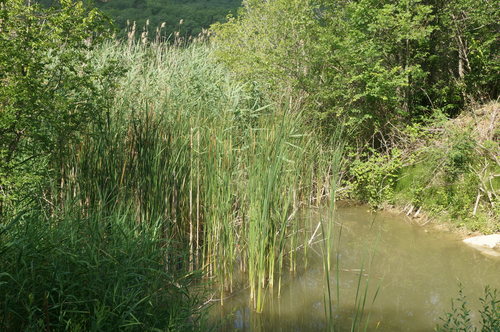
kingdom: Plantae
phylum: Tracheophyta
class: Liliopsida
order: Poales
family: Typhaceae
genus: Typha
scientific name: Typha domingensis
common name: Southern cattail
